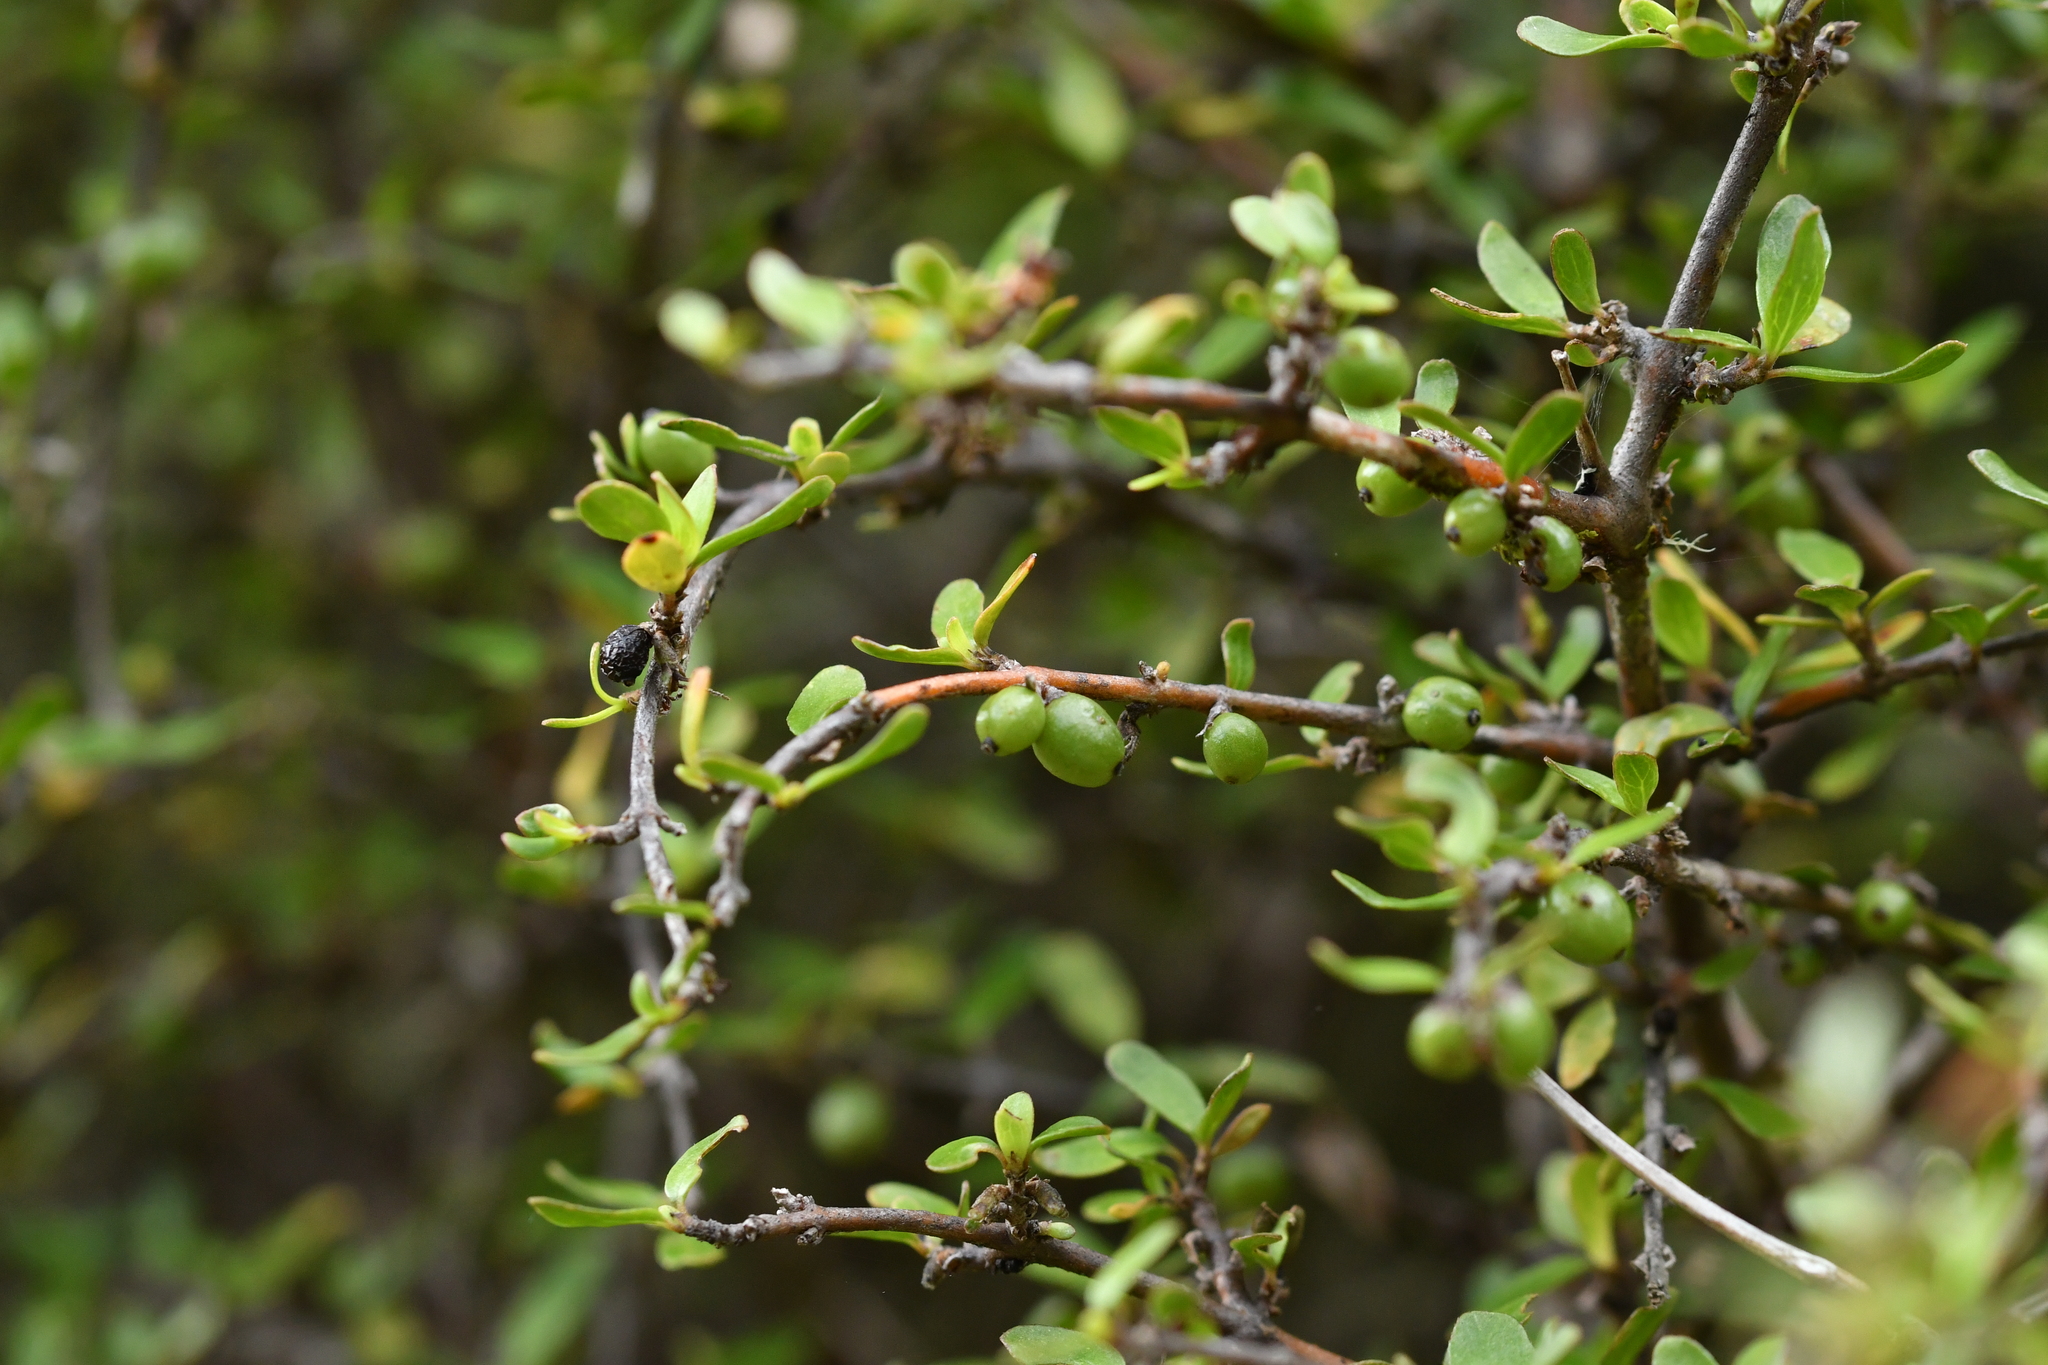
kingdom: Plantae
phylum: Tracheophyta
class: Magnoliopsida
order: Gentianales
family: Rubiaceae
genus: Coprosma
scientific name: Coprosma propinqua
